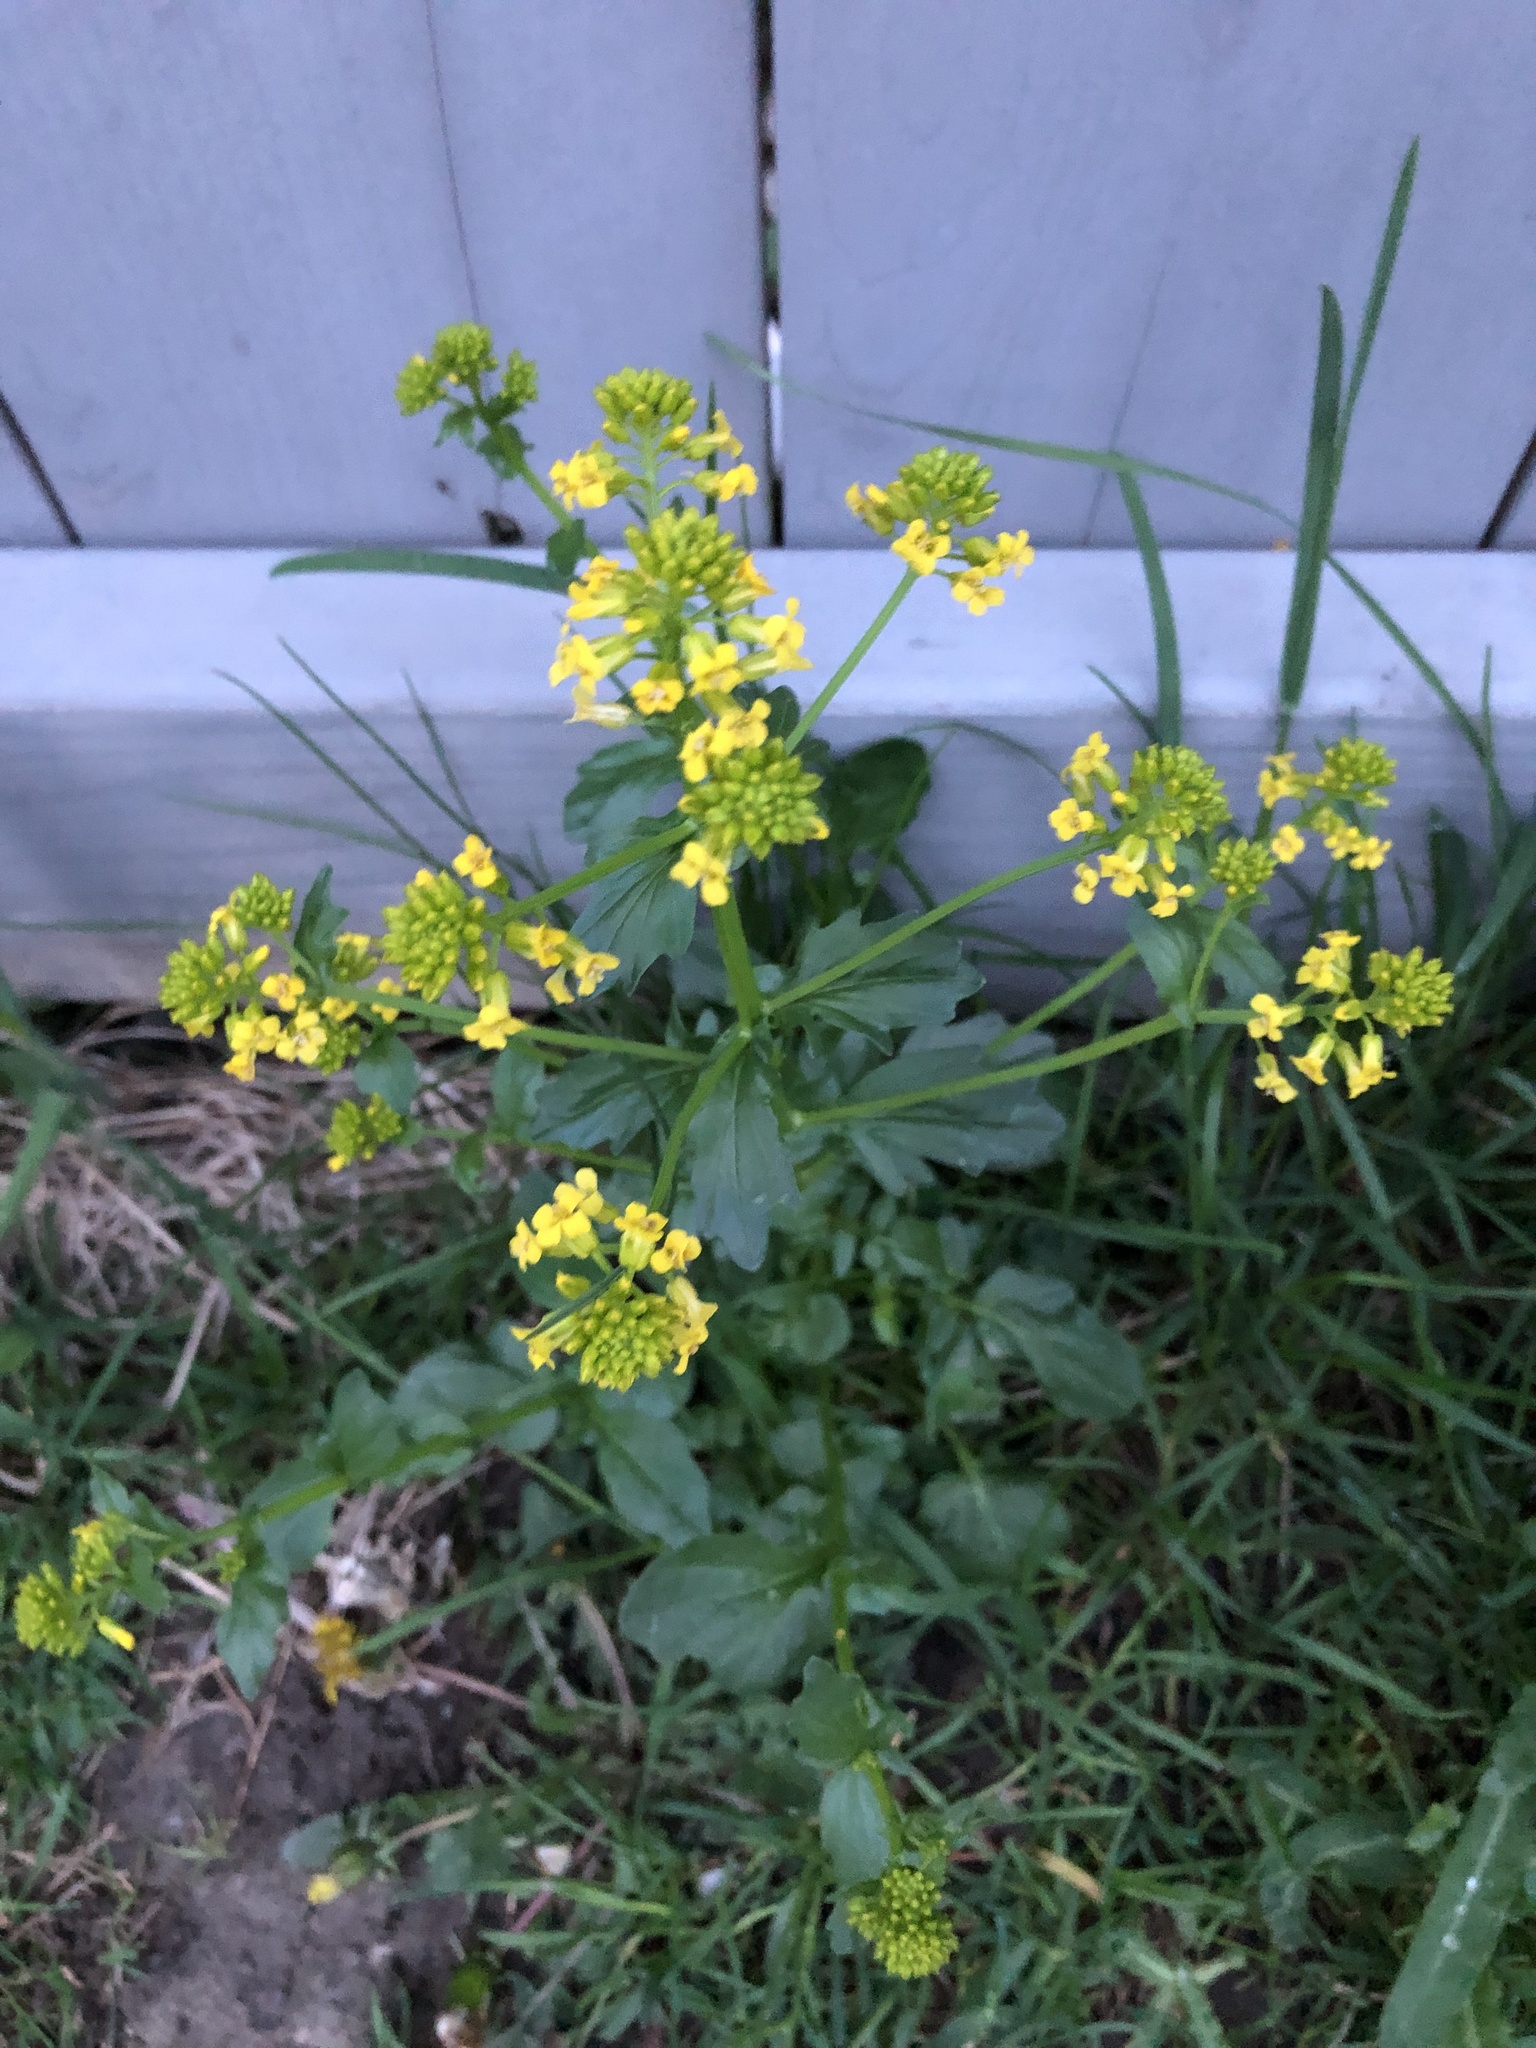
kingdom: Plantae
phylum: Tracheophyta
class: Magnoliopsida
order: Brassicales
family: Brassicaceae
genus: Barbarea
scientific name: Barbarea vulgaris
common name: Cressy-greens
